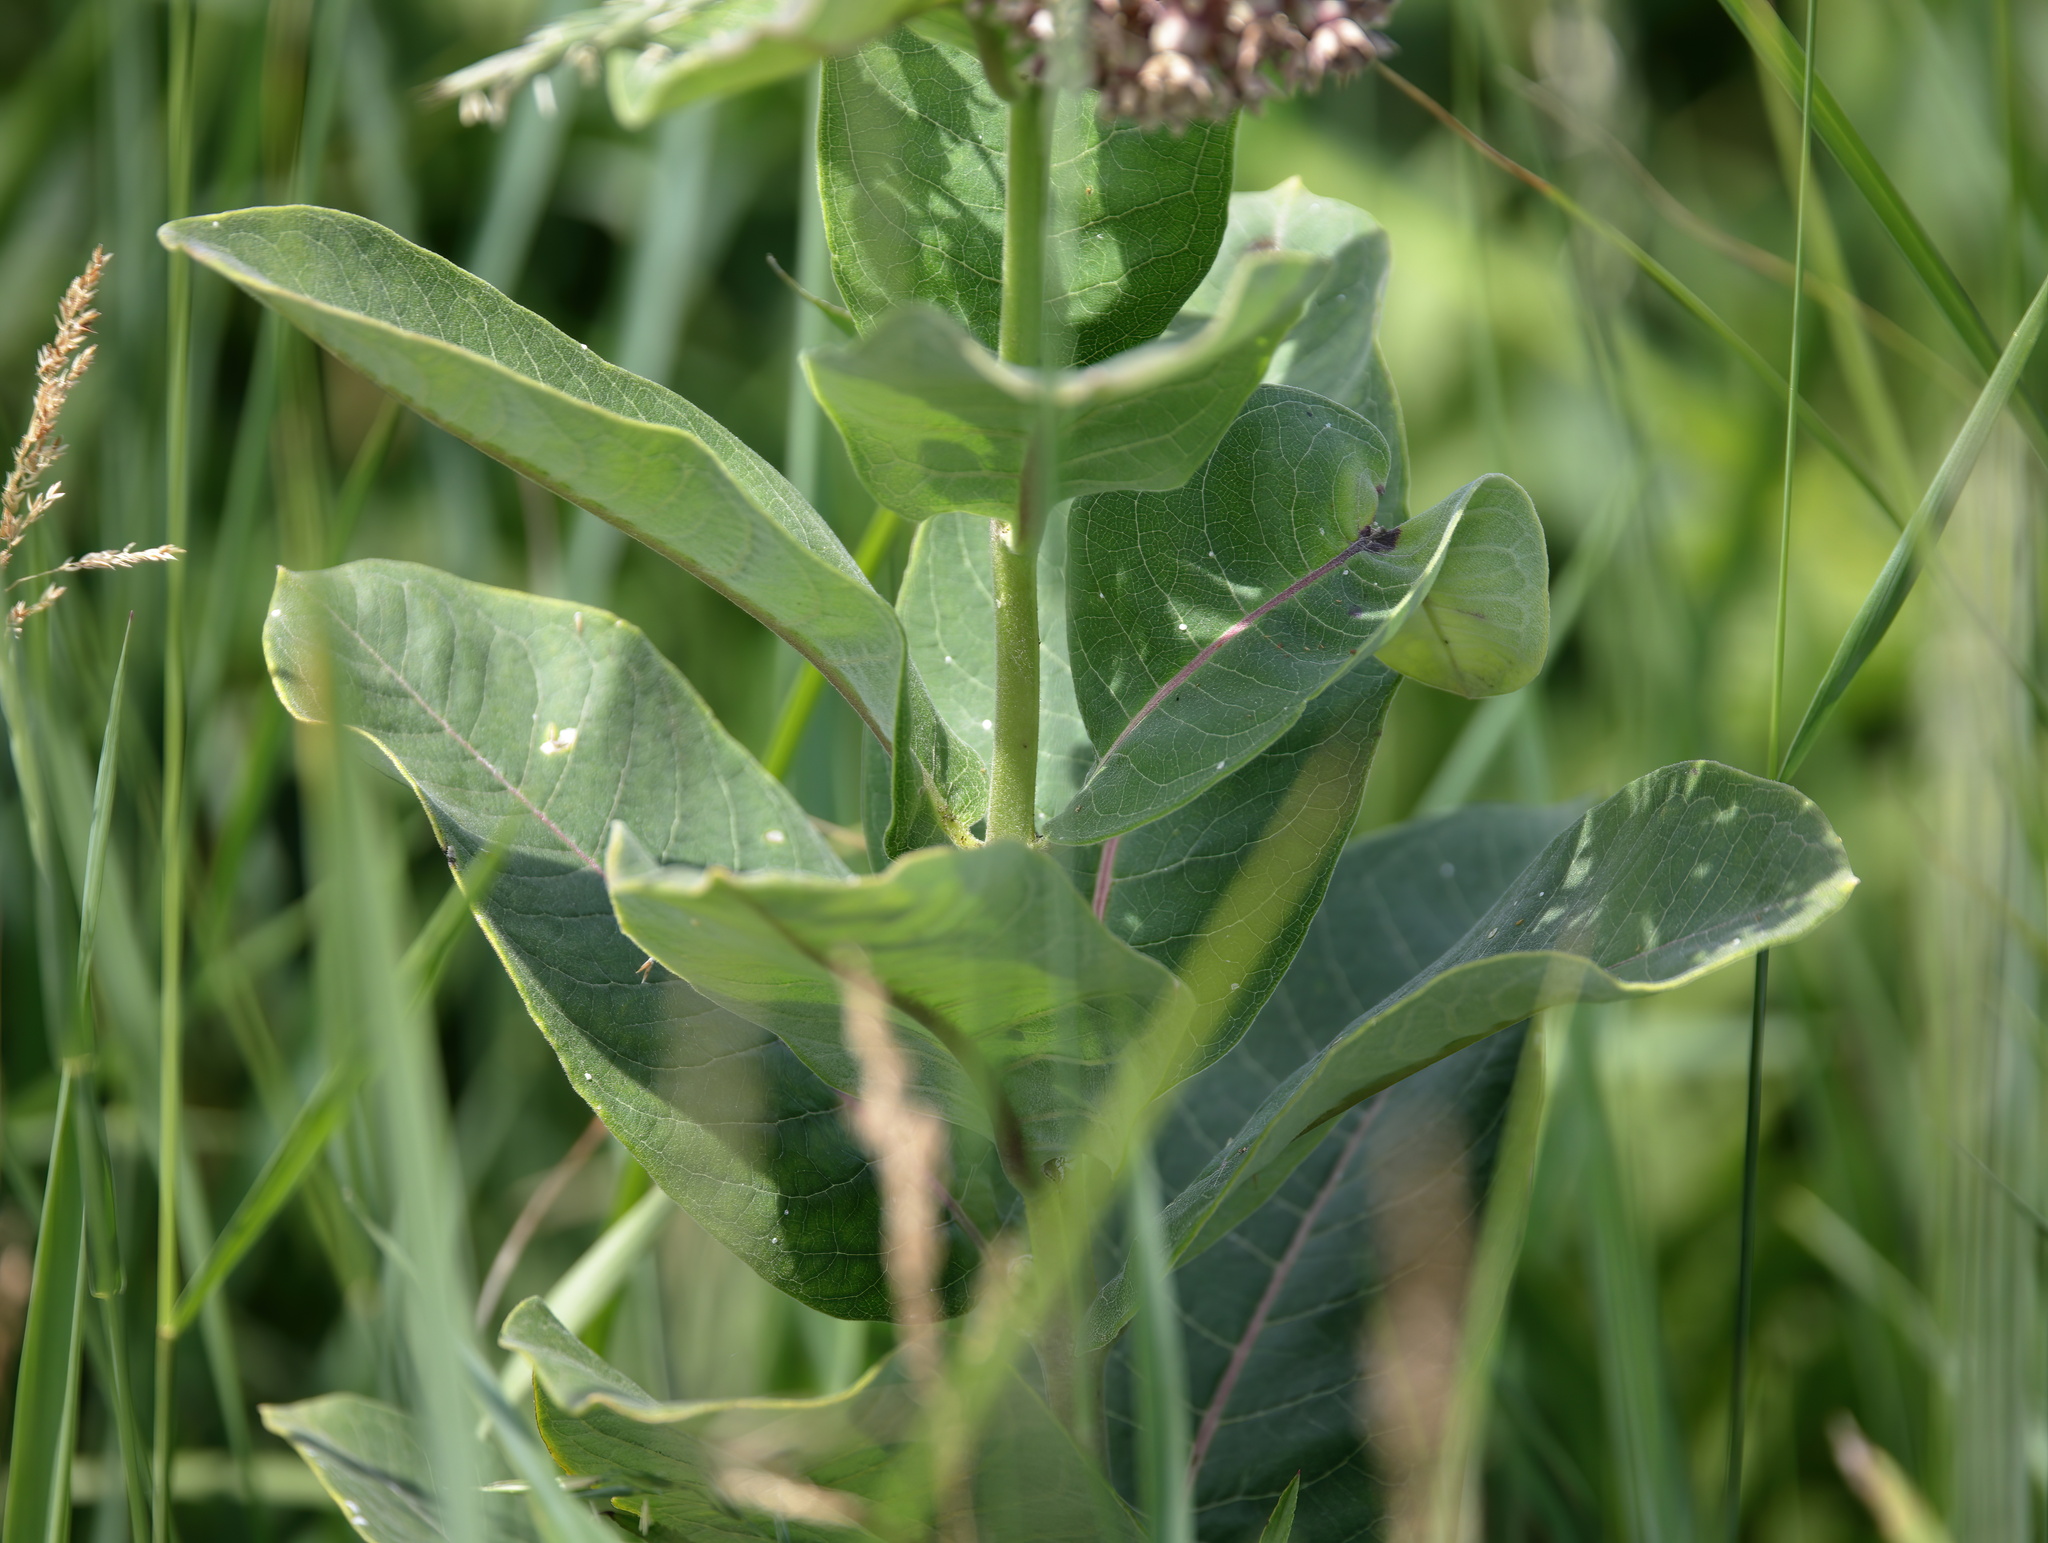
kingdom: Plantae
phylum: Tracheophyta
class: Magnoliopsida
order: Gentianales
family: Apocynaceae
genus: Asclepias
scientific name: Asclepias syriaca
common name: Common milkweed
